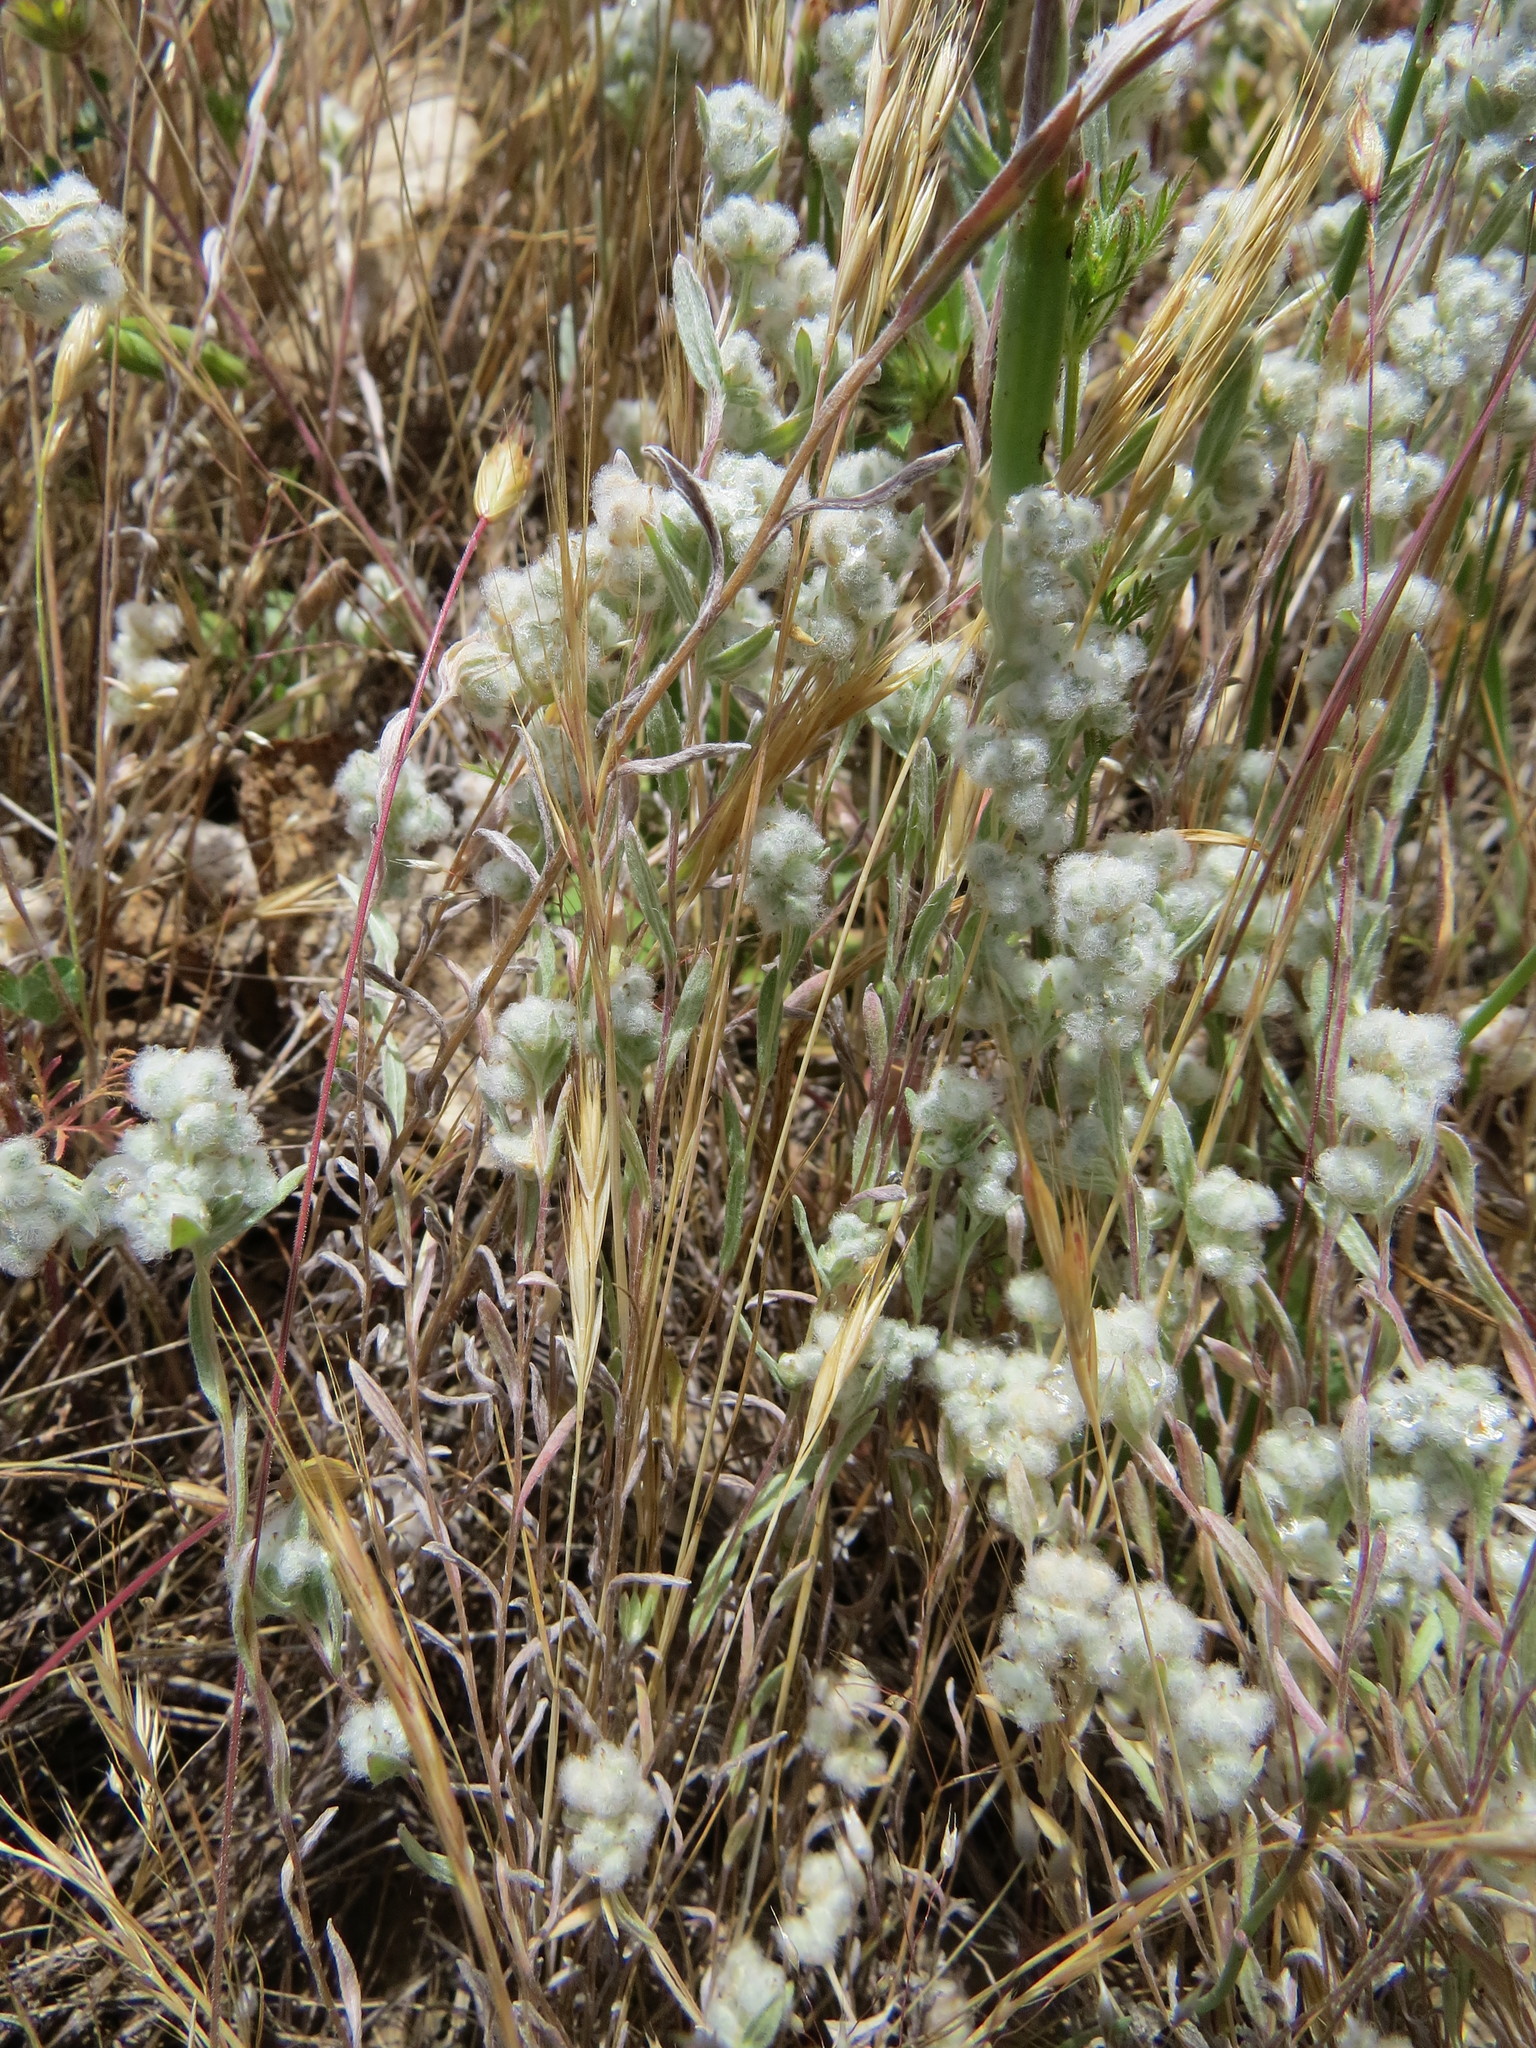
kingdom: Plantae
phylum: Tracheophyta
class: Magnoliopsida
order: Asterales
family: Asteraceae
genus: Bombycilaena
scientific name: Bombycilaena californica
